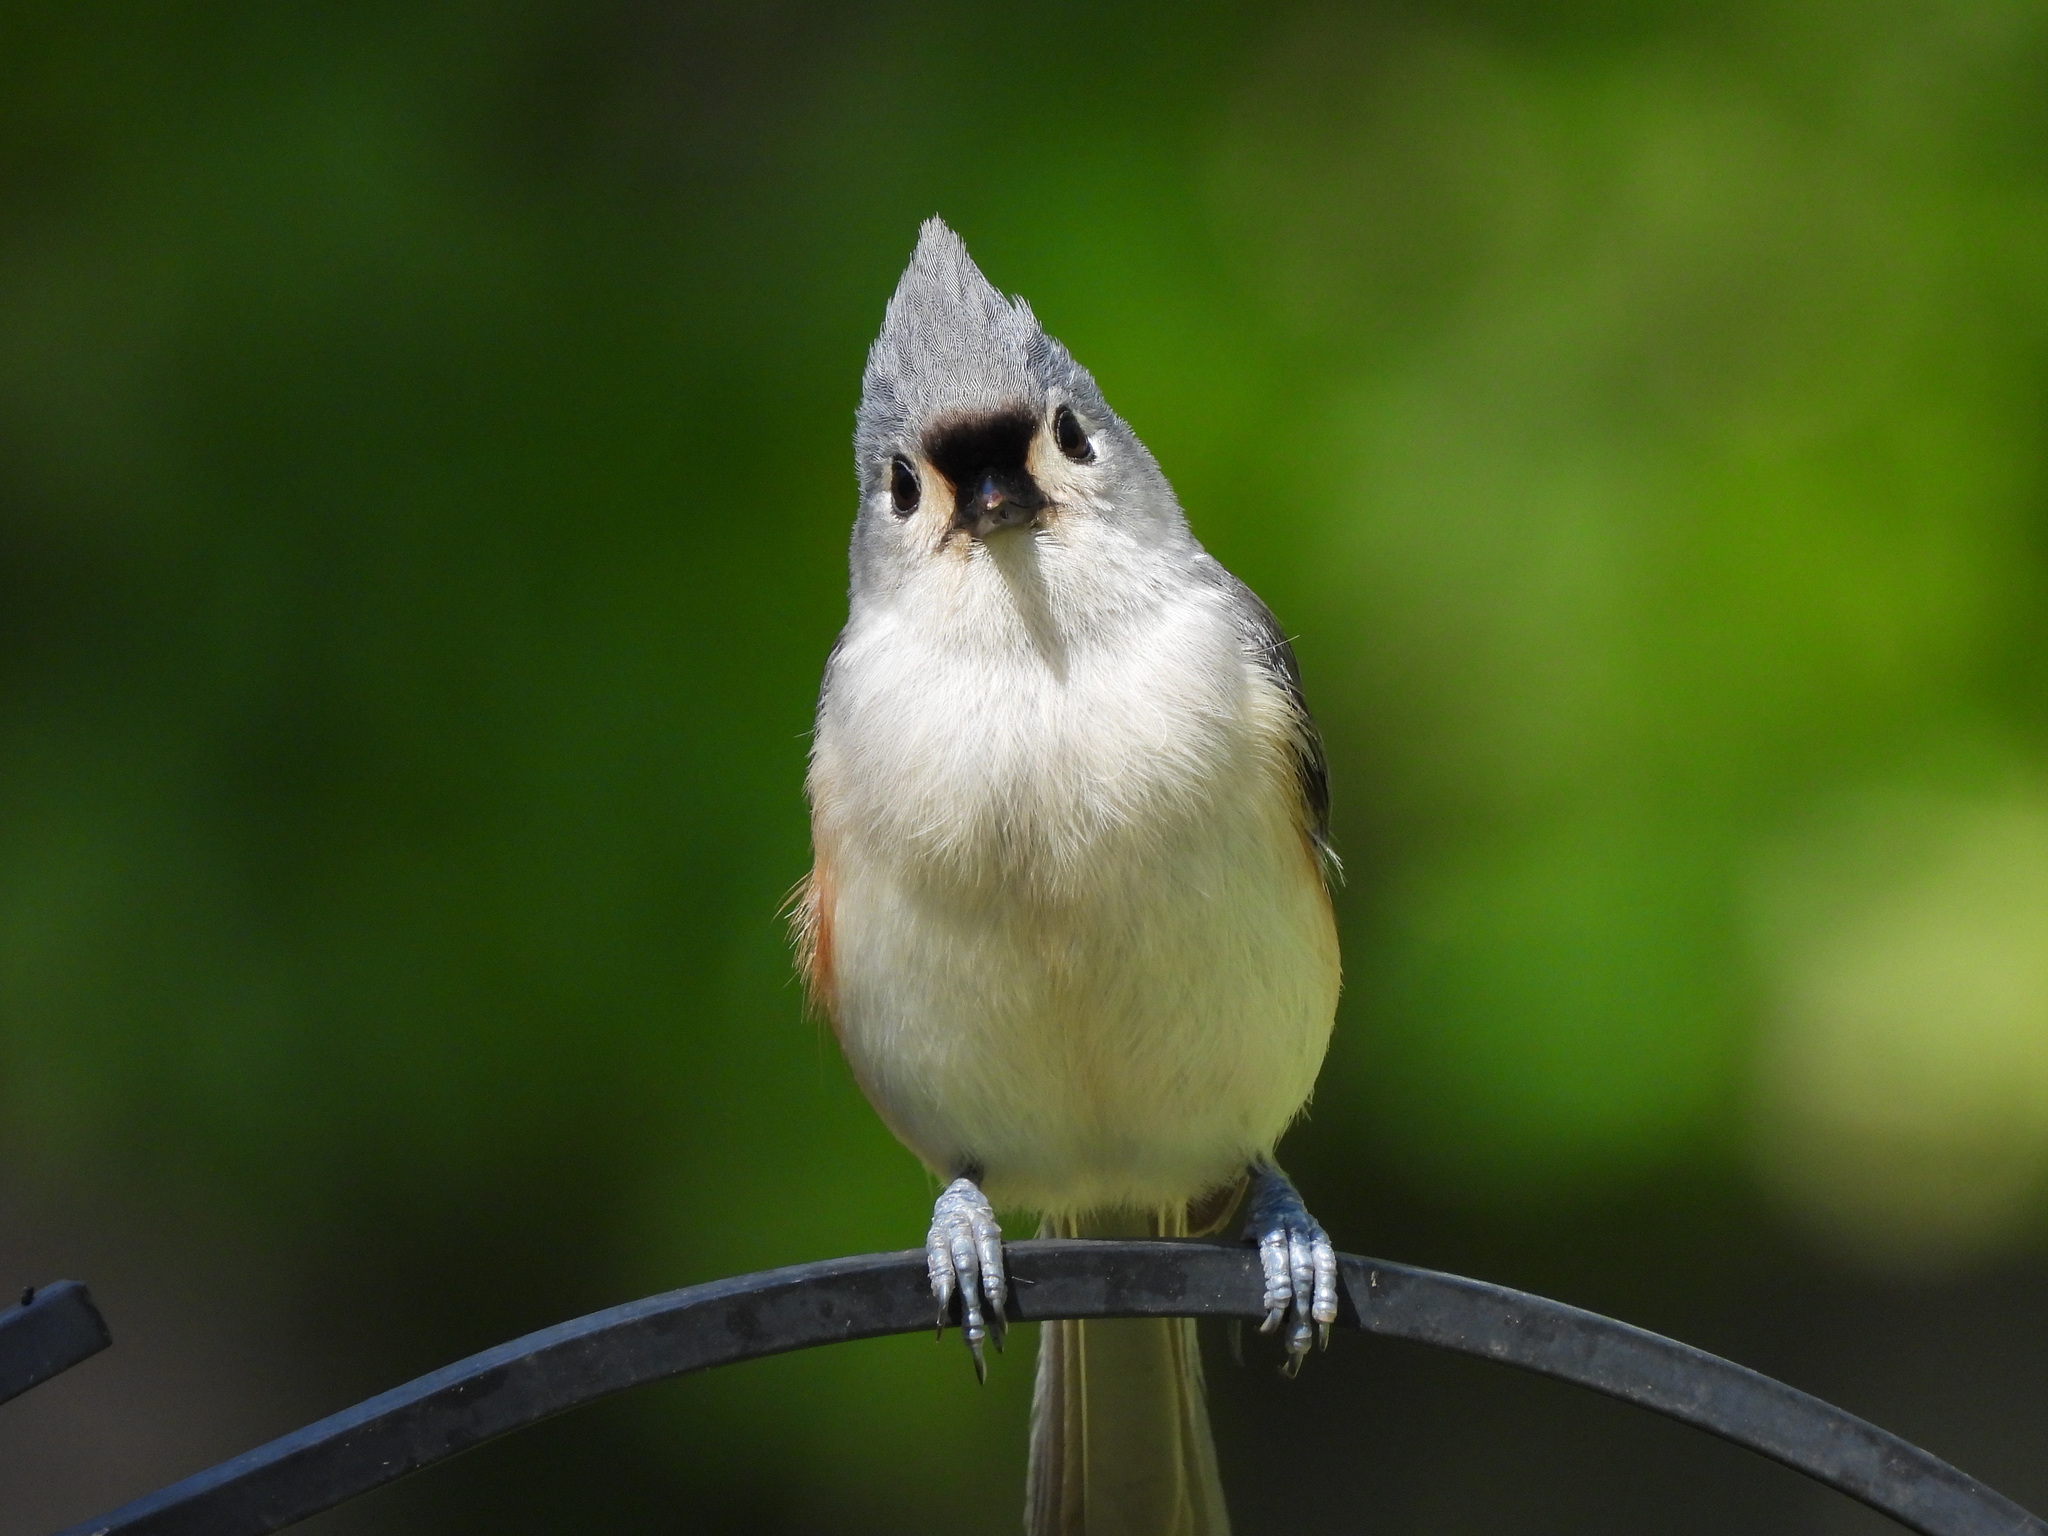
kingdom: Animalia
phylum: Chordata
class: Aves
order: Passeriformes
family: Paridae
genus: Baeolophus
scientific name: Baeolophus bicolor
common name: Tufted titmouse
